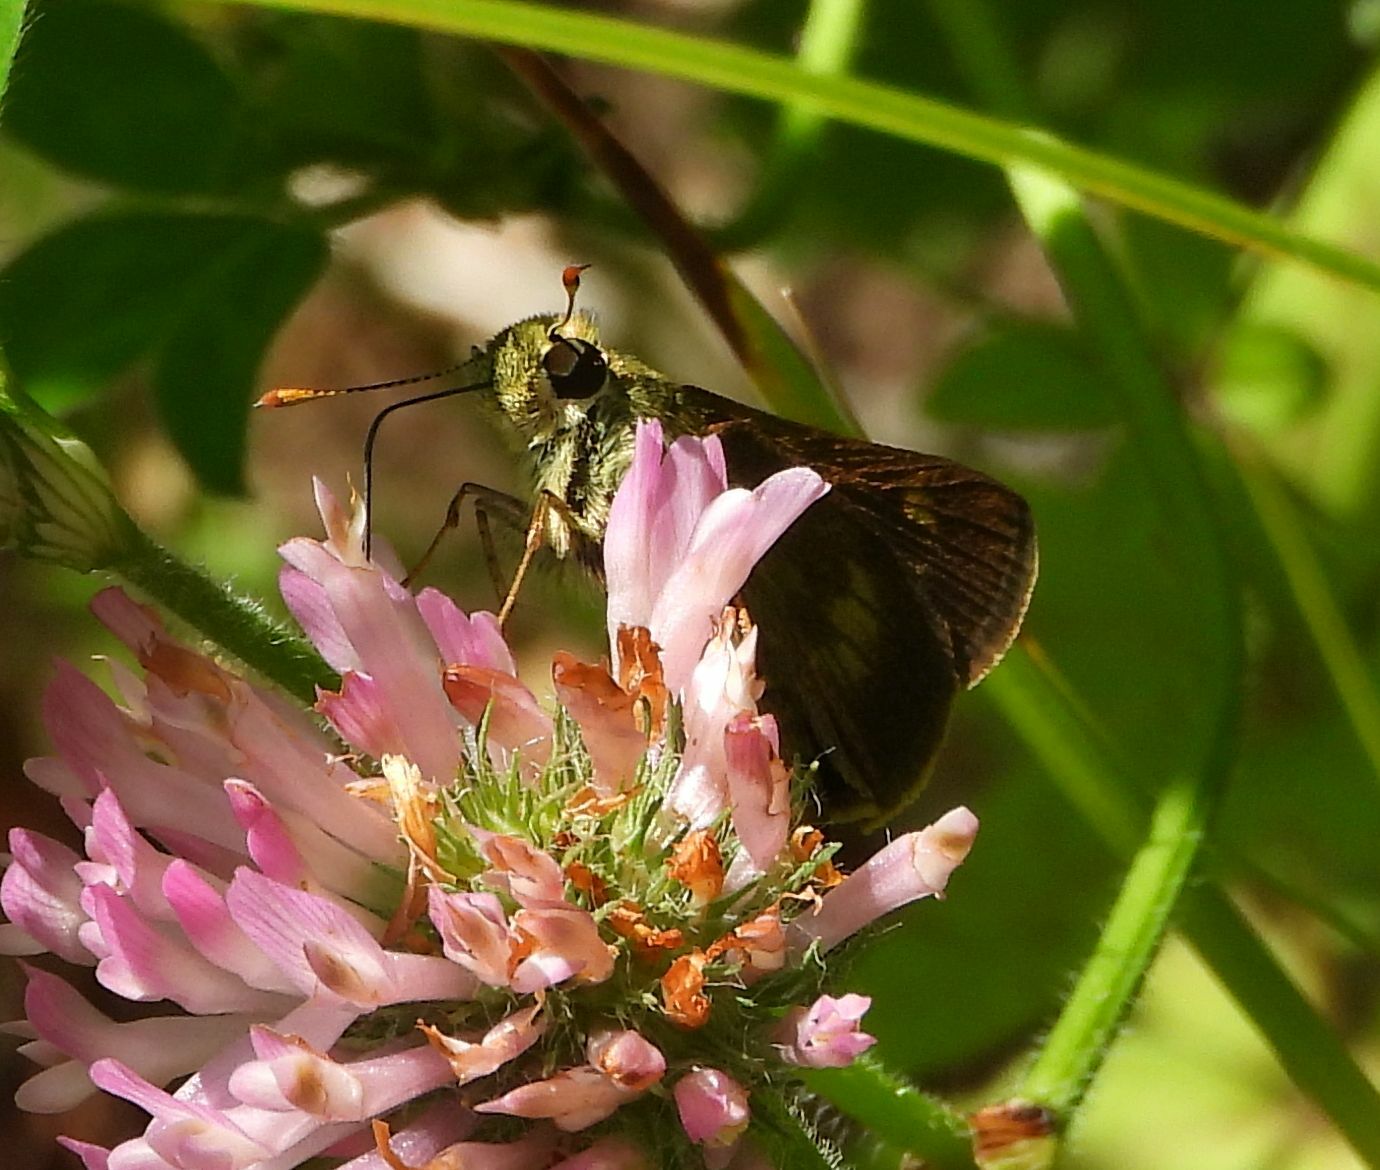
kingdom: Animalia
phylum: Arthropoda
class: Insecta
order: Lepidoptera
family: Hesperiidae
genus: Polites
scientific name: Polites egeremet
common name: Northern broken-dash
